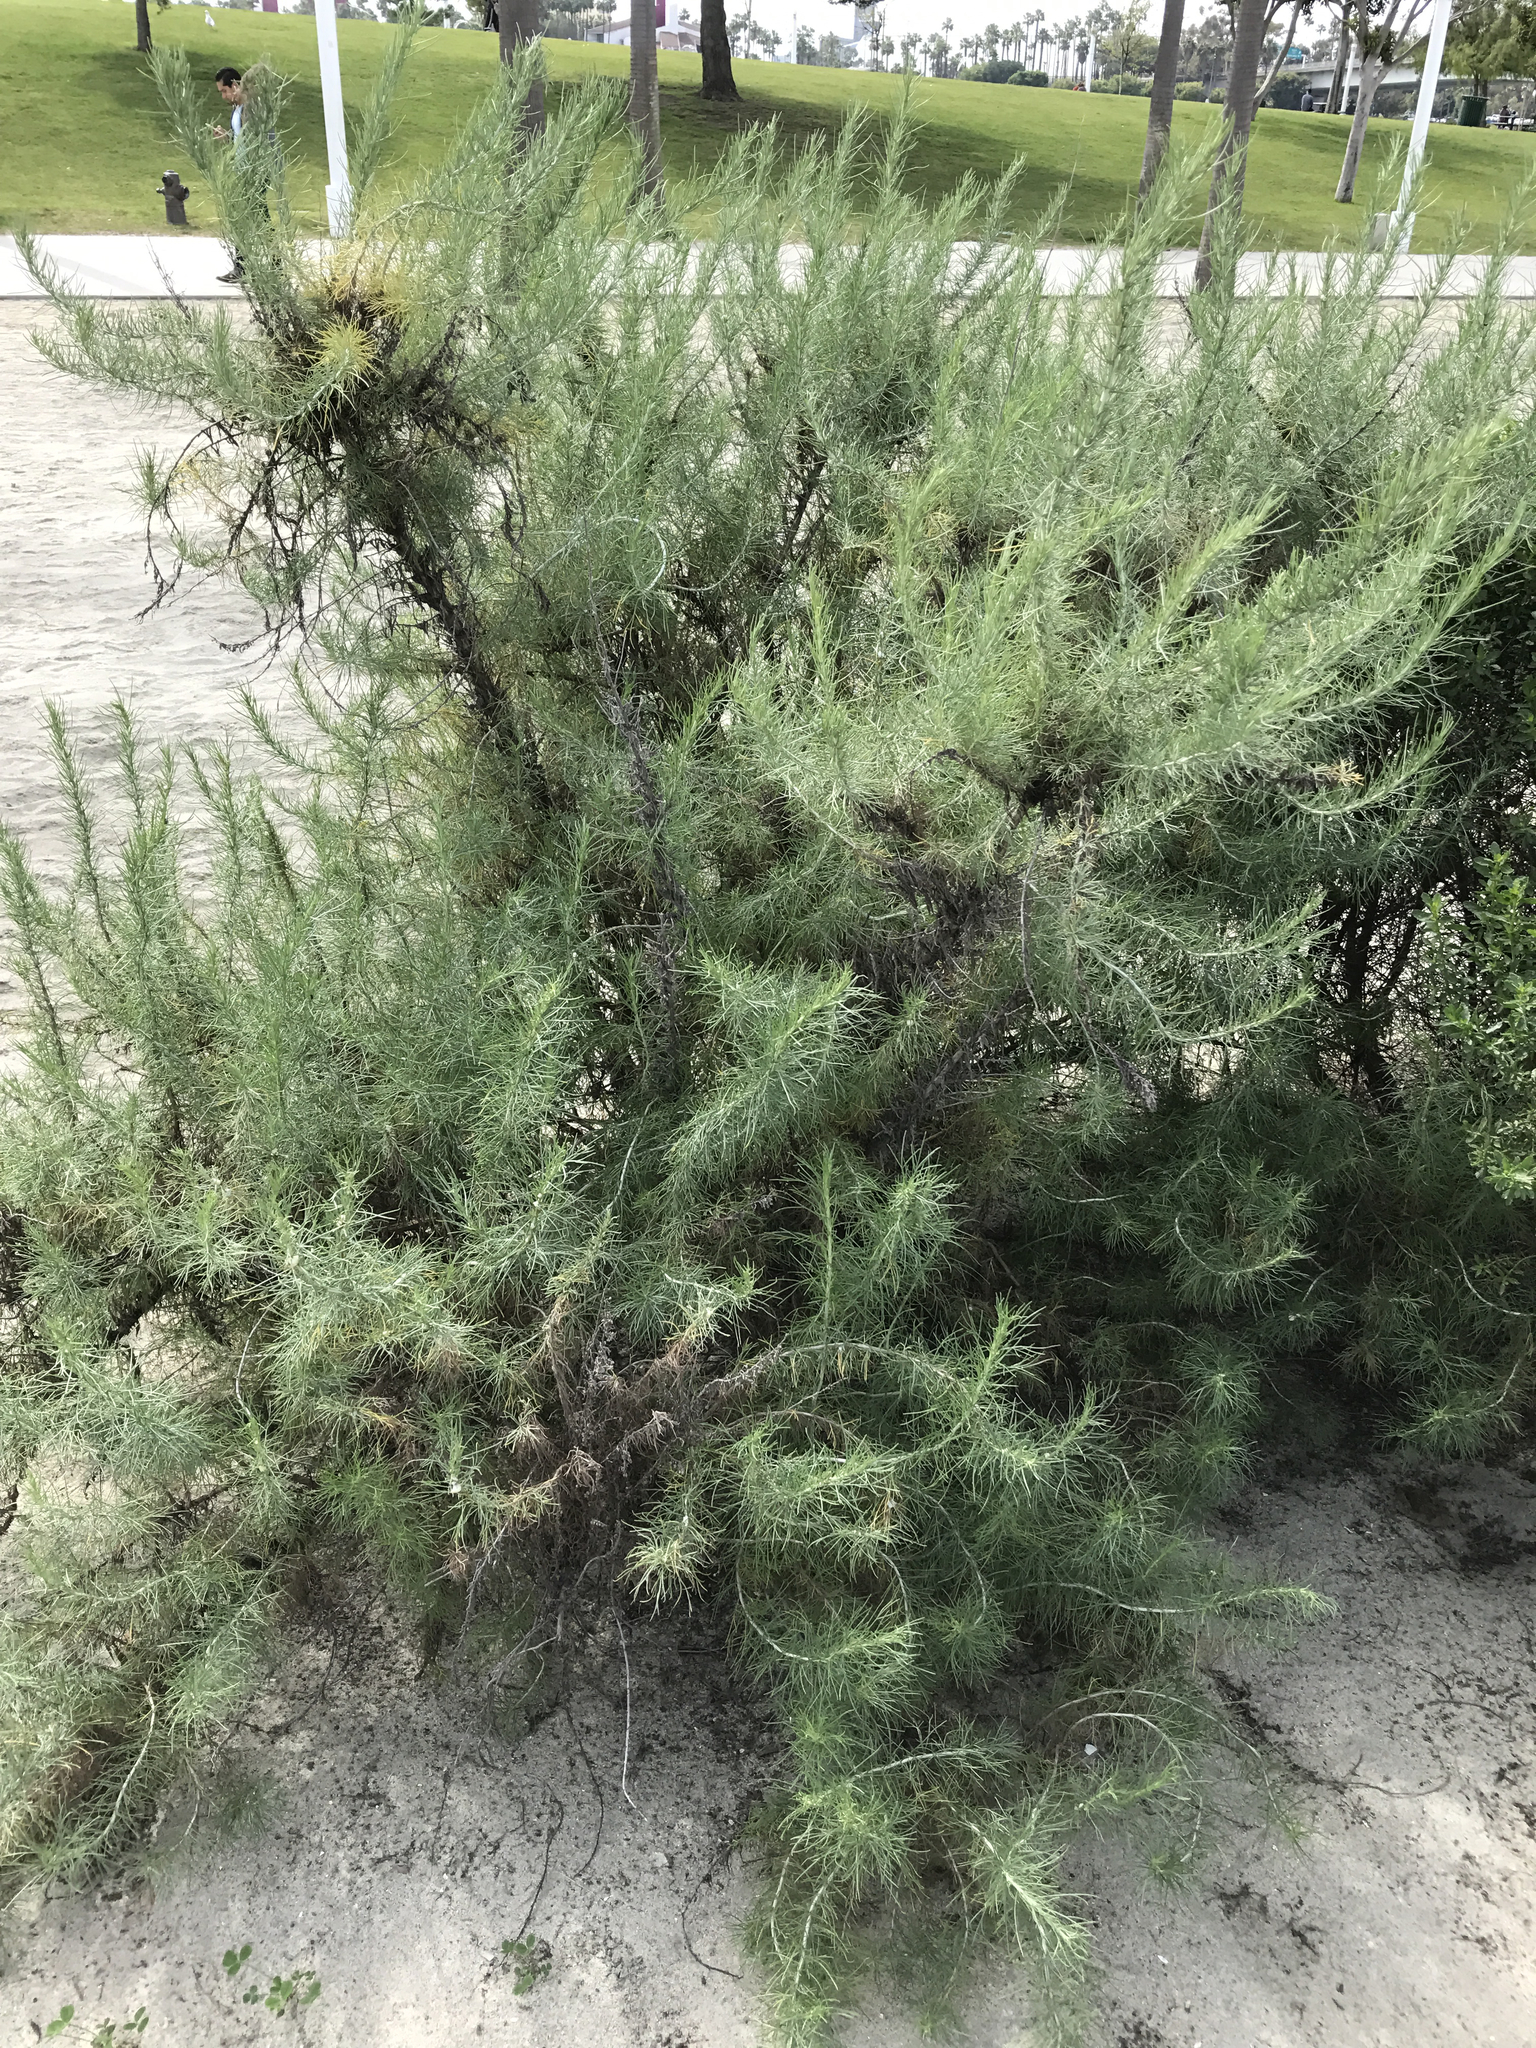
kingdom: Plantae
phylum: Tracheophyta
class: Magnoliopsida
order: Asterales
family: Asteraceae
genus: Artemisia
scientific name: Artemisia californica
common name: California sagebrush
